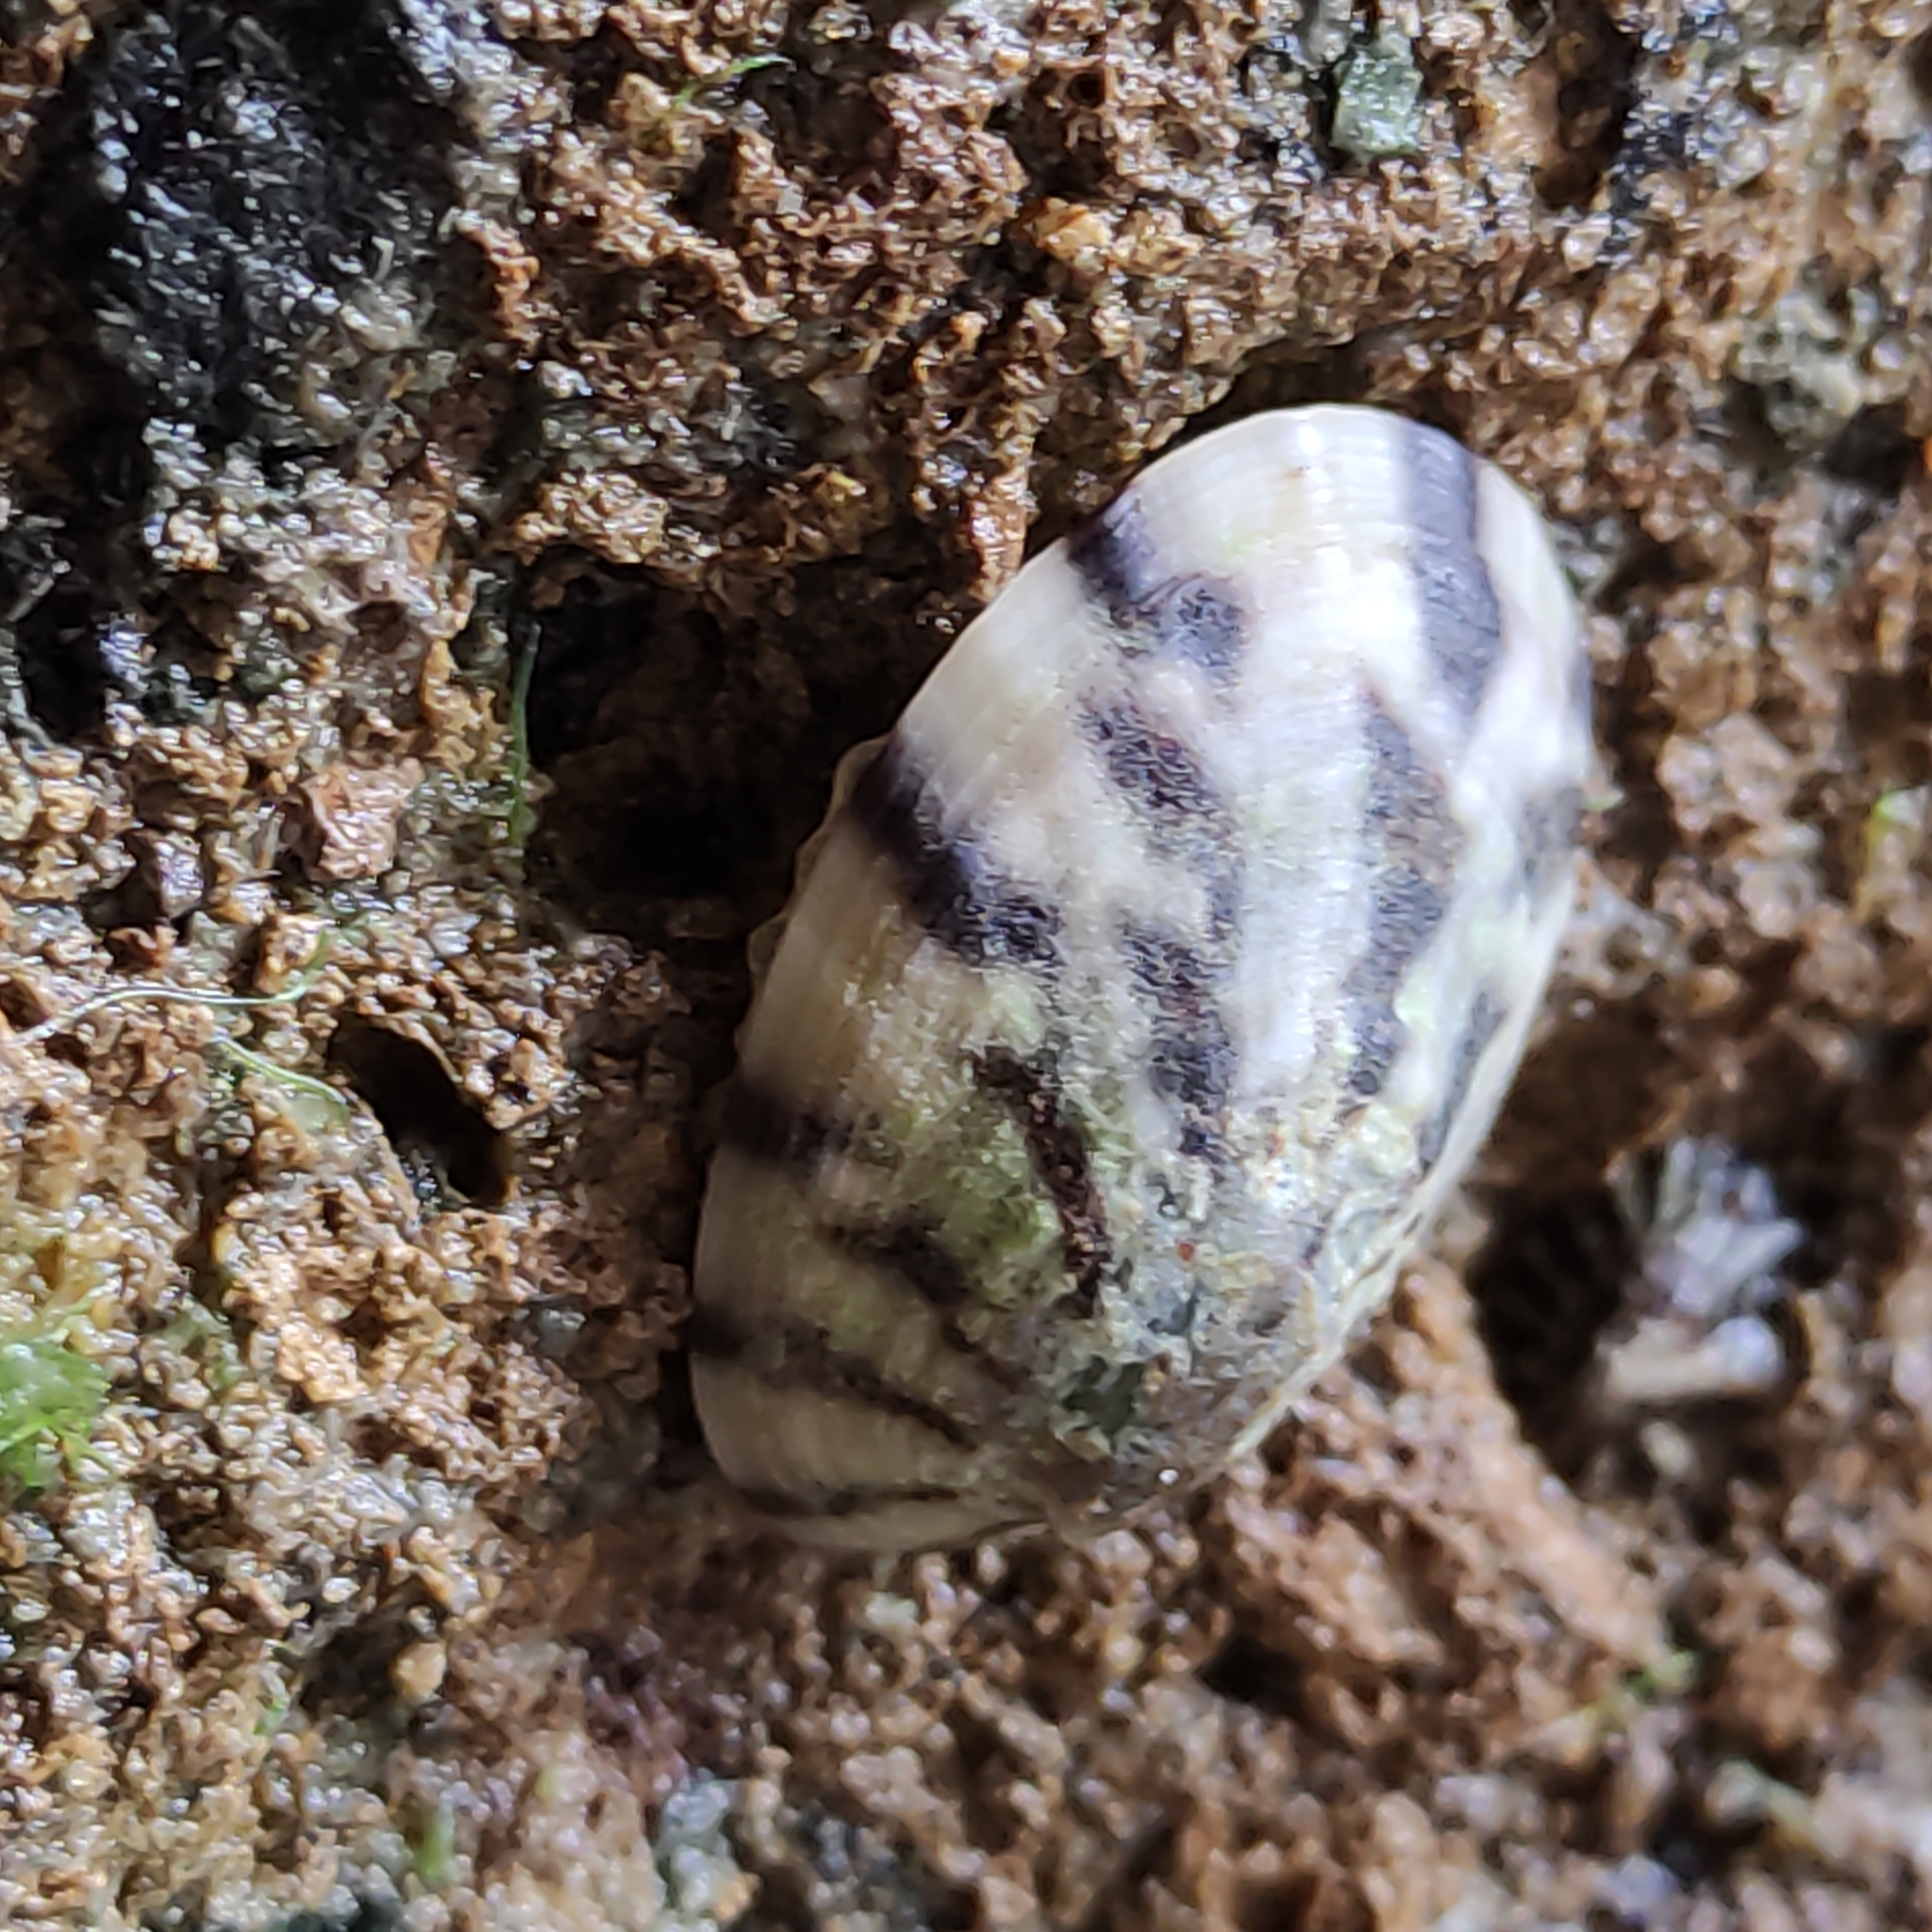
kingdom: Animalia
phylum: Mollusca
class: Gastropoda
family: Nacellidae
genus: Cellana
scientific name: Cellana radians
